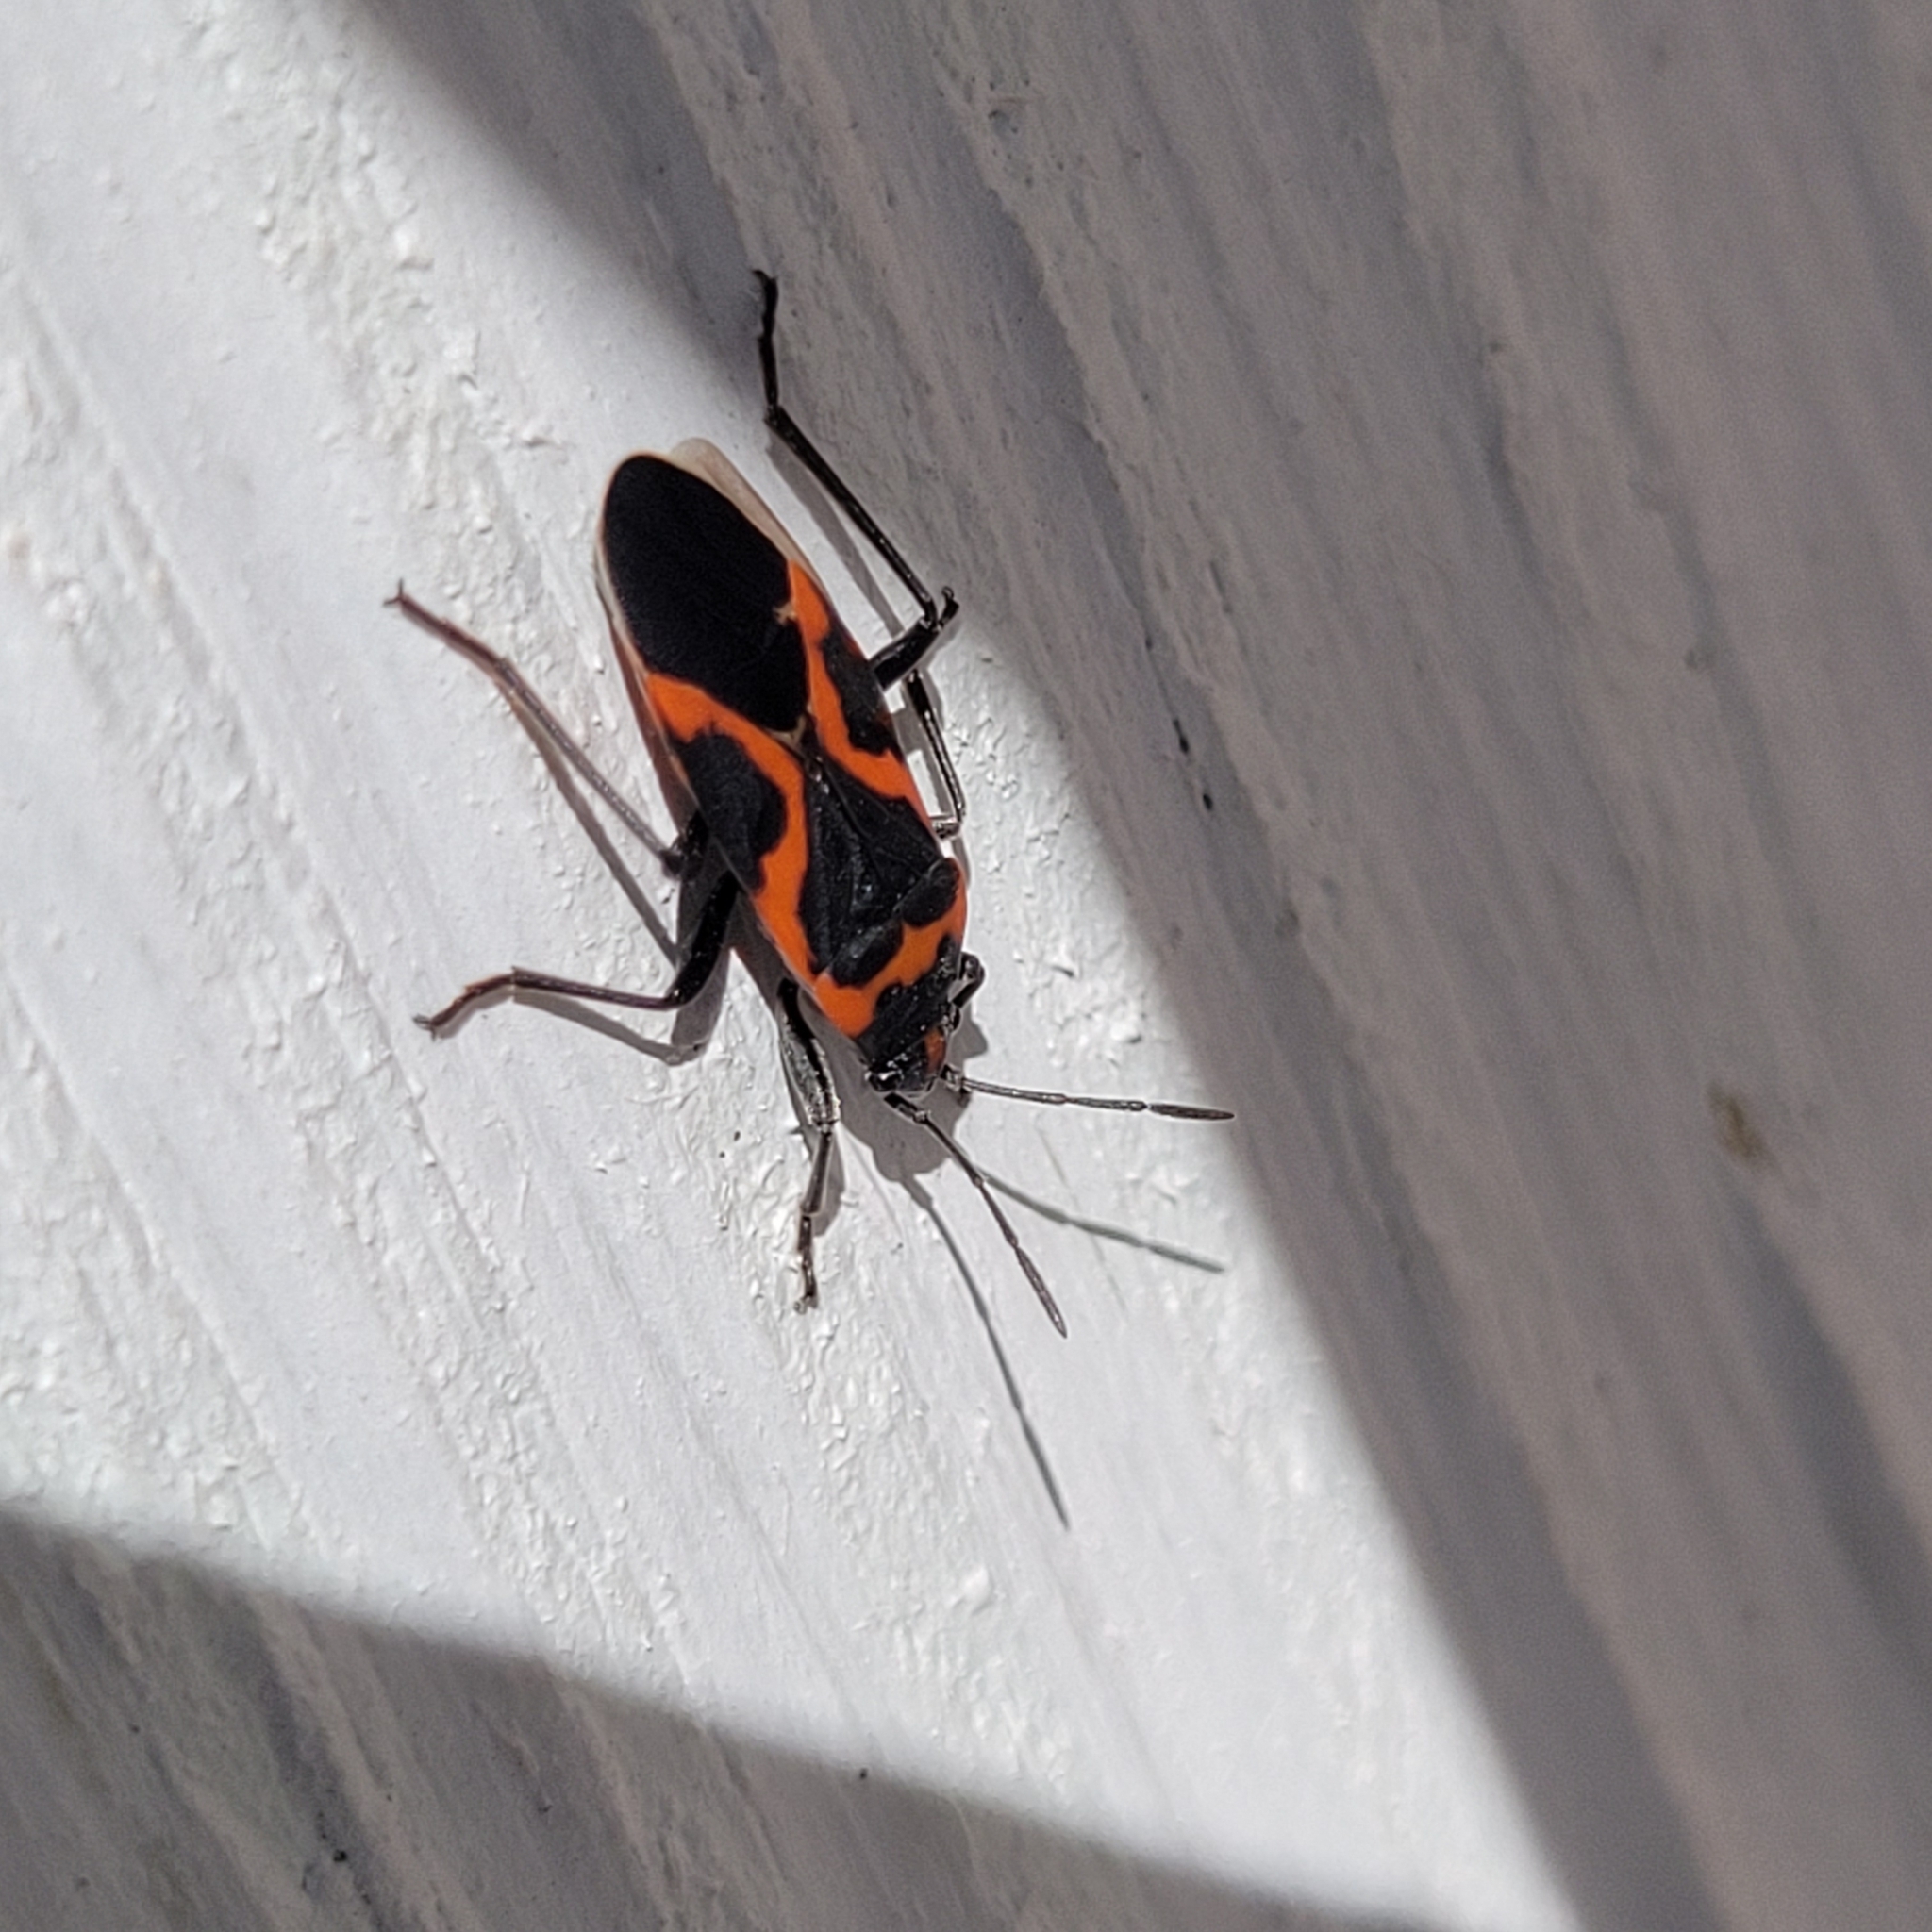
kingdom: Animalia
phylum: Arthropoda
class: Insecta
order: Hemiptera
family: Lygaeidae
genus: Lygaeus
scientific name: Lygaeus kalmii
